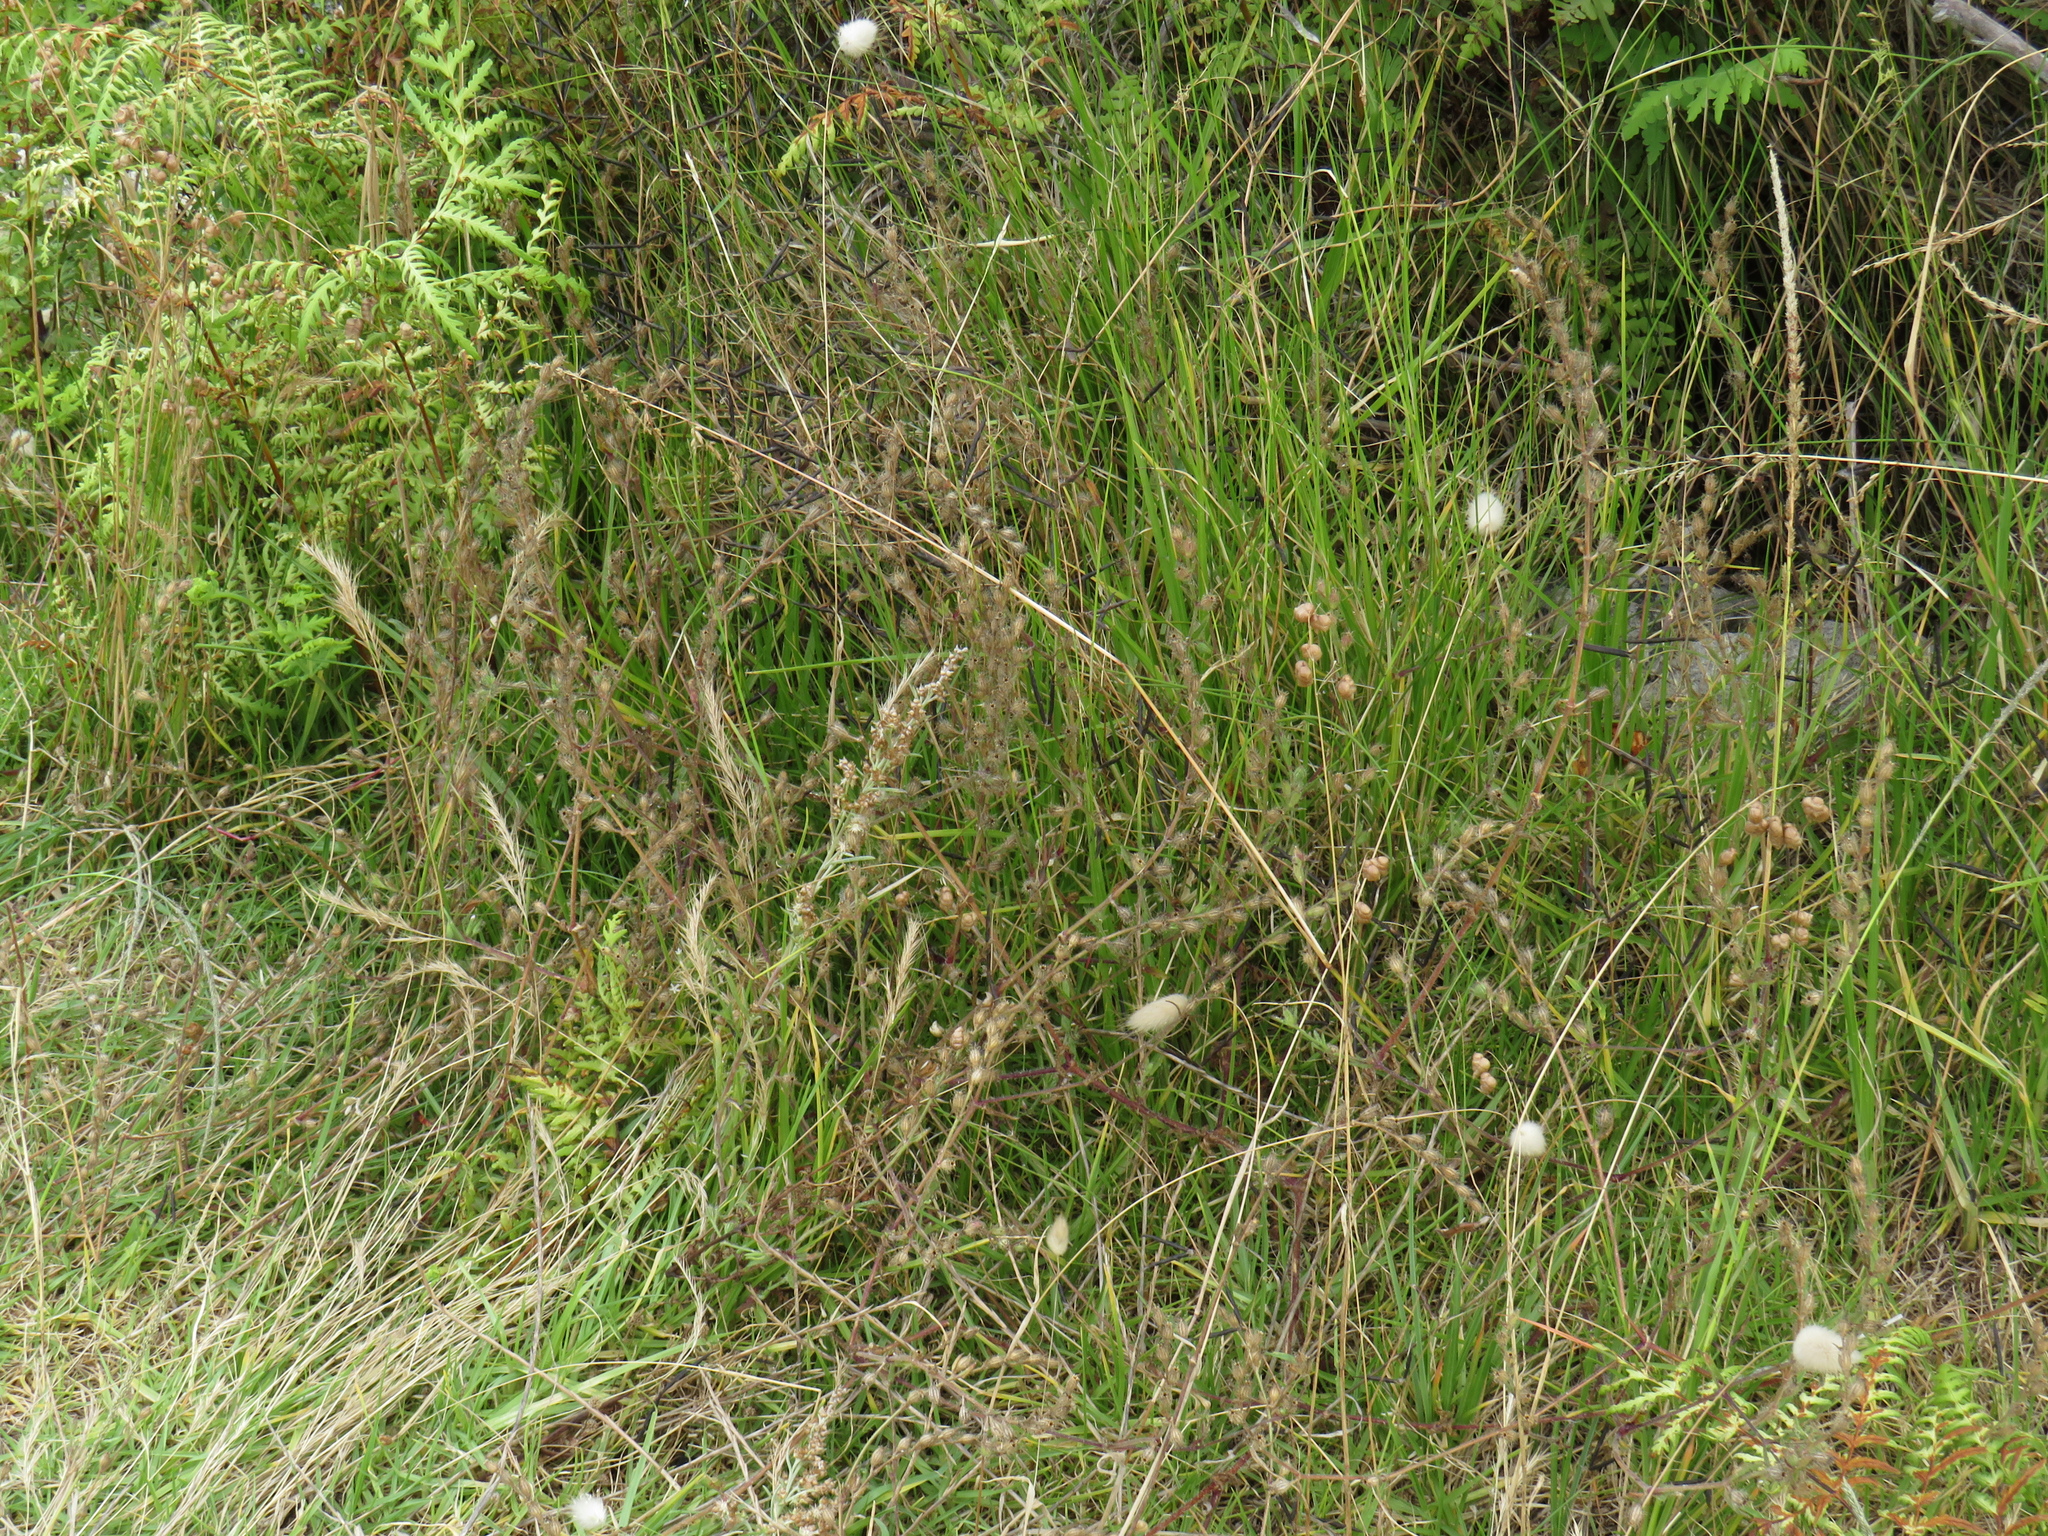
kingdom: Plantae
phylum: Tracheophyta
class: Magnoliopsida
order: Caryophyllales
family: Caryophyllaceae
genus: Silene
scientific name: Silene gallica
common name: Small-flowered catchfly
